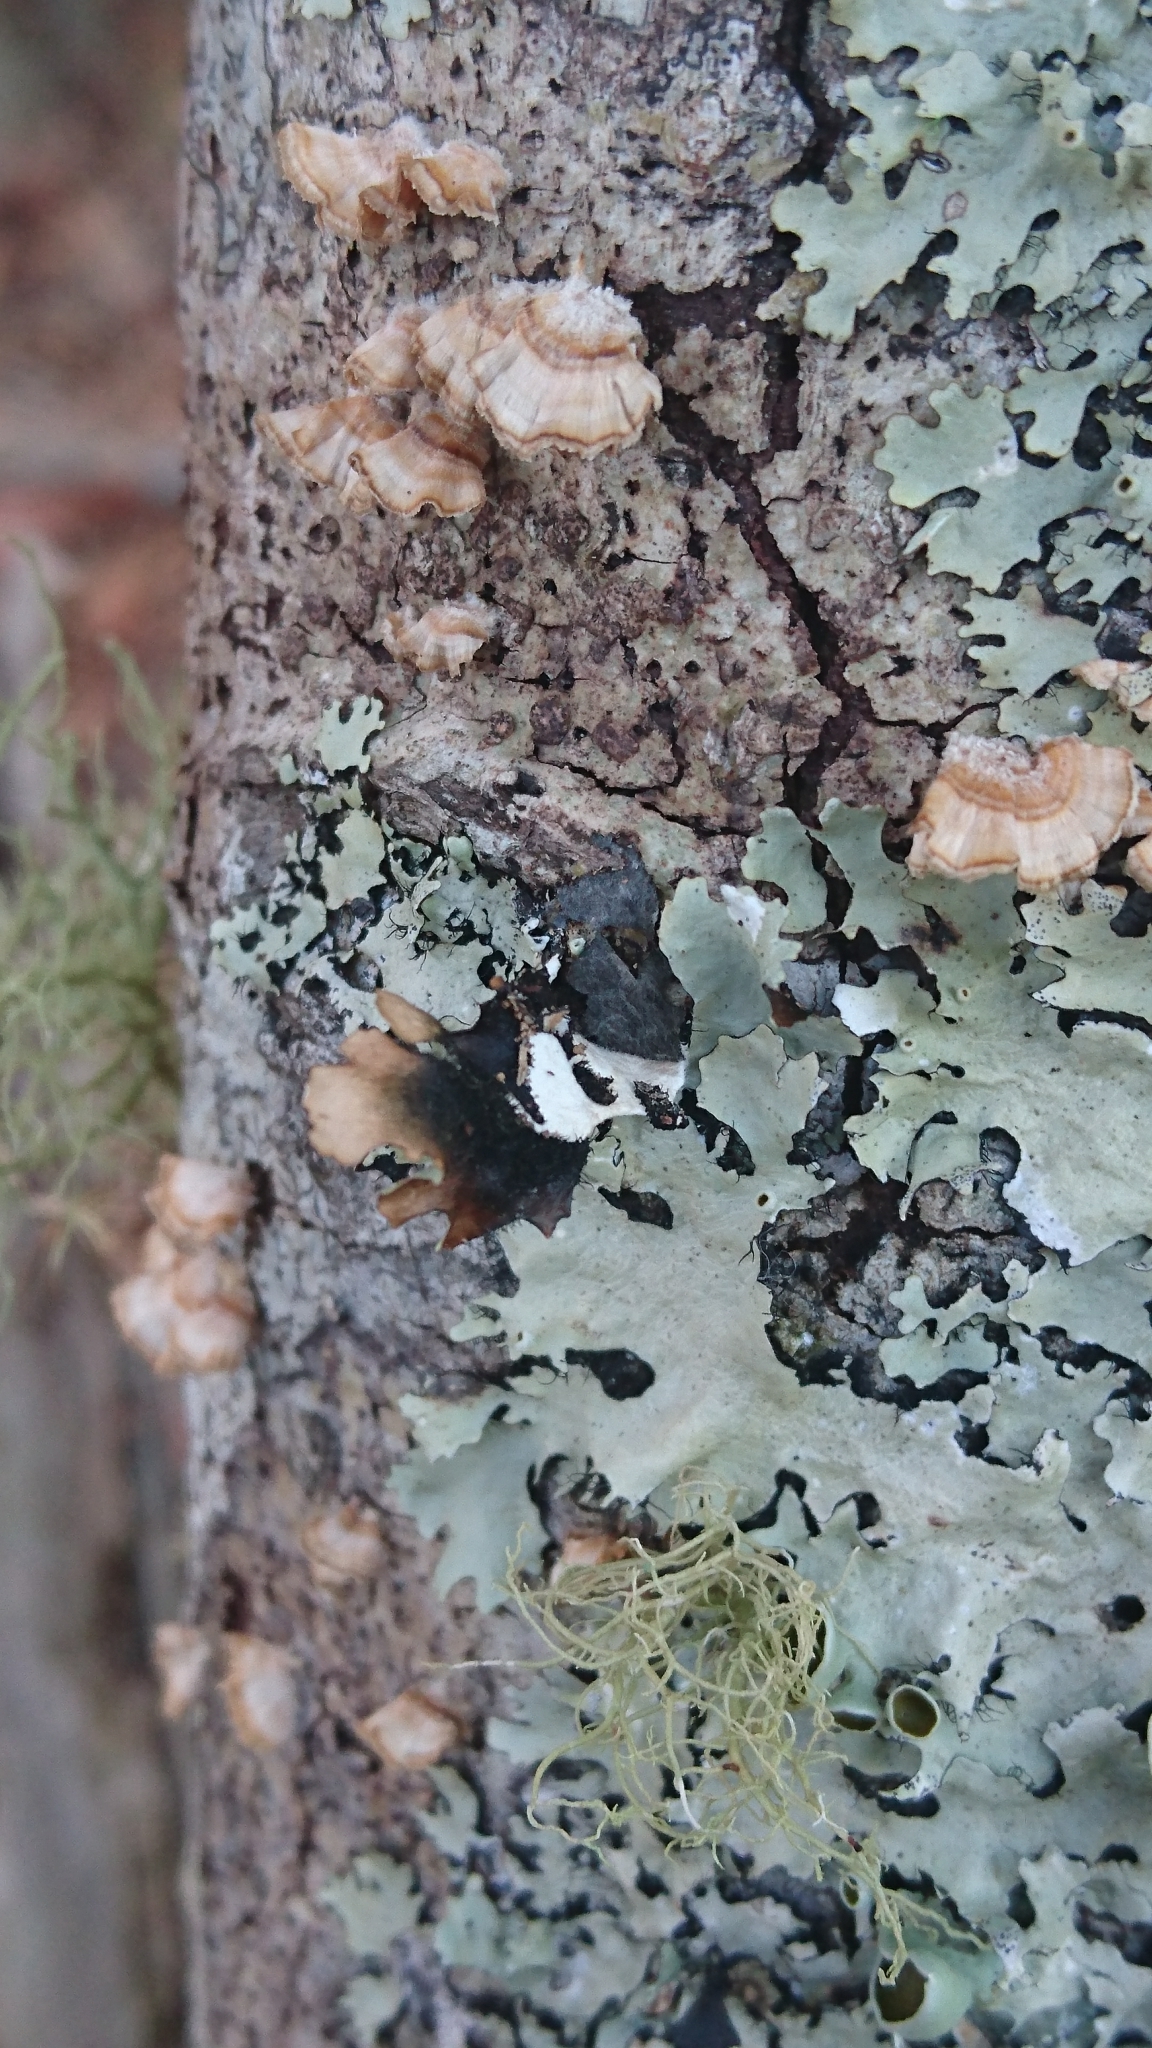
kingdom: Fungi
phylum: Ascomycota
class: Lecanoromycetes
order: Lecanorales
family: Parmeliaceae
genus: Parmotrema
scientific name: Parmotrema submarginale
